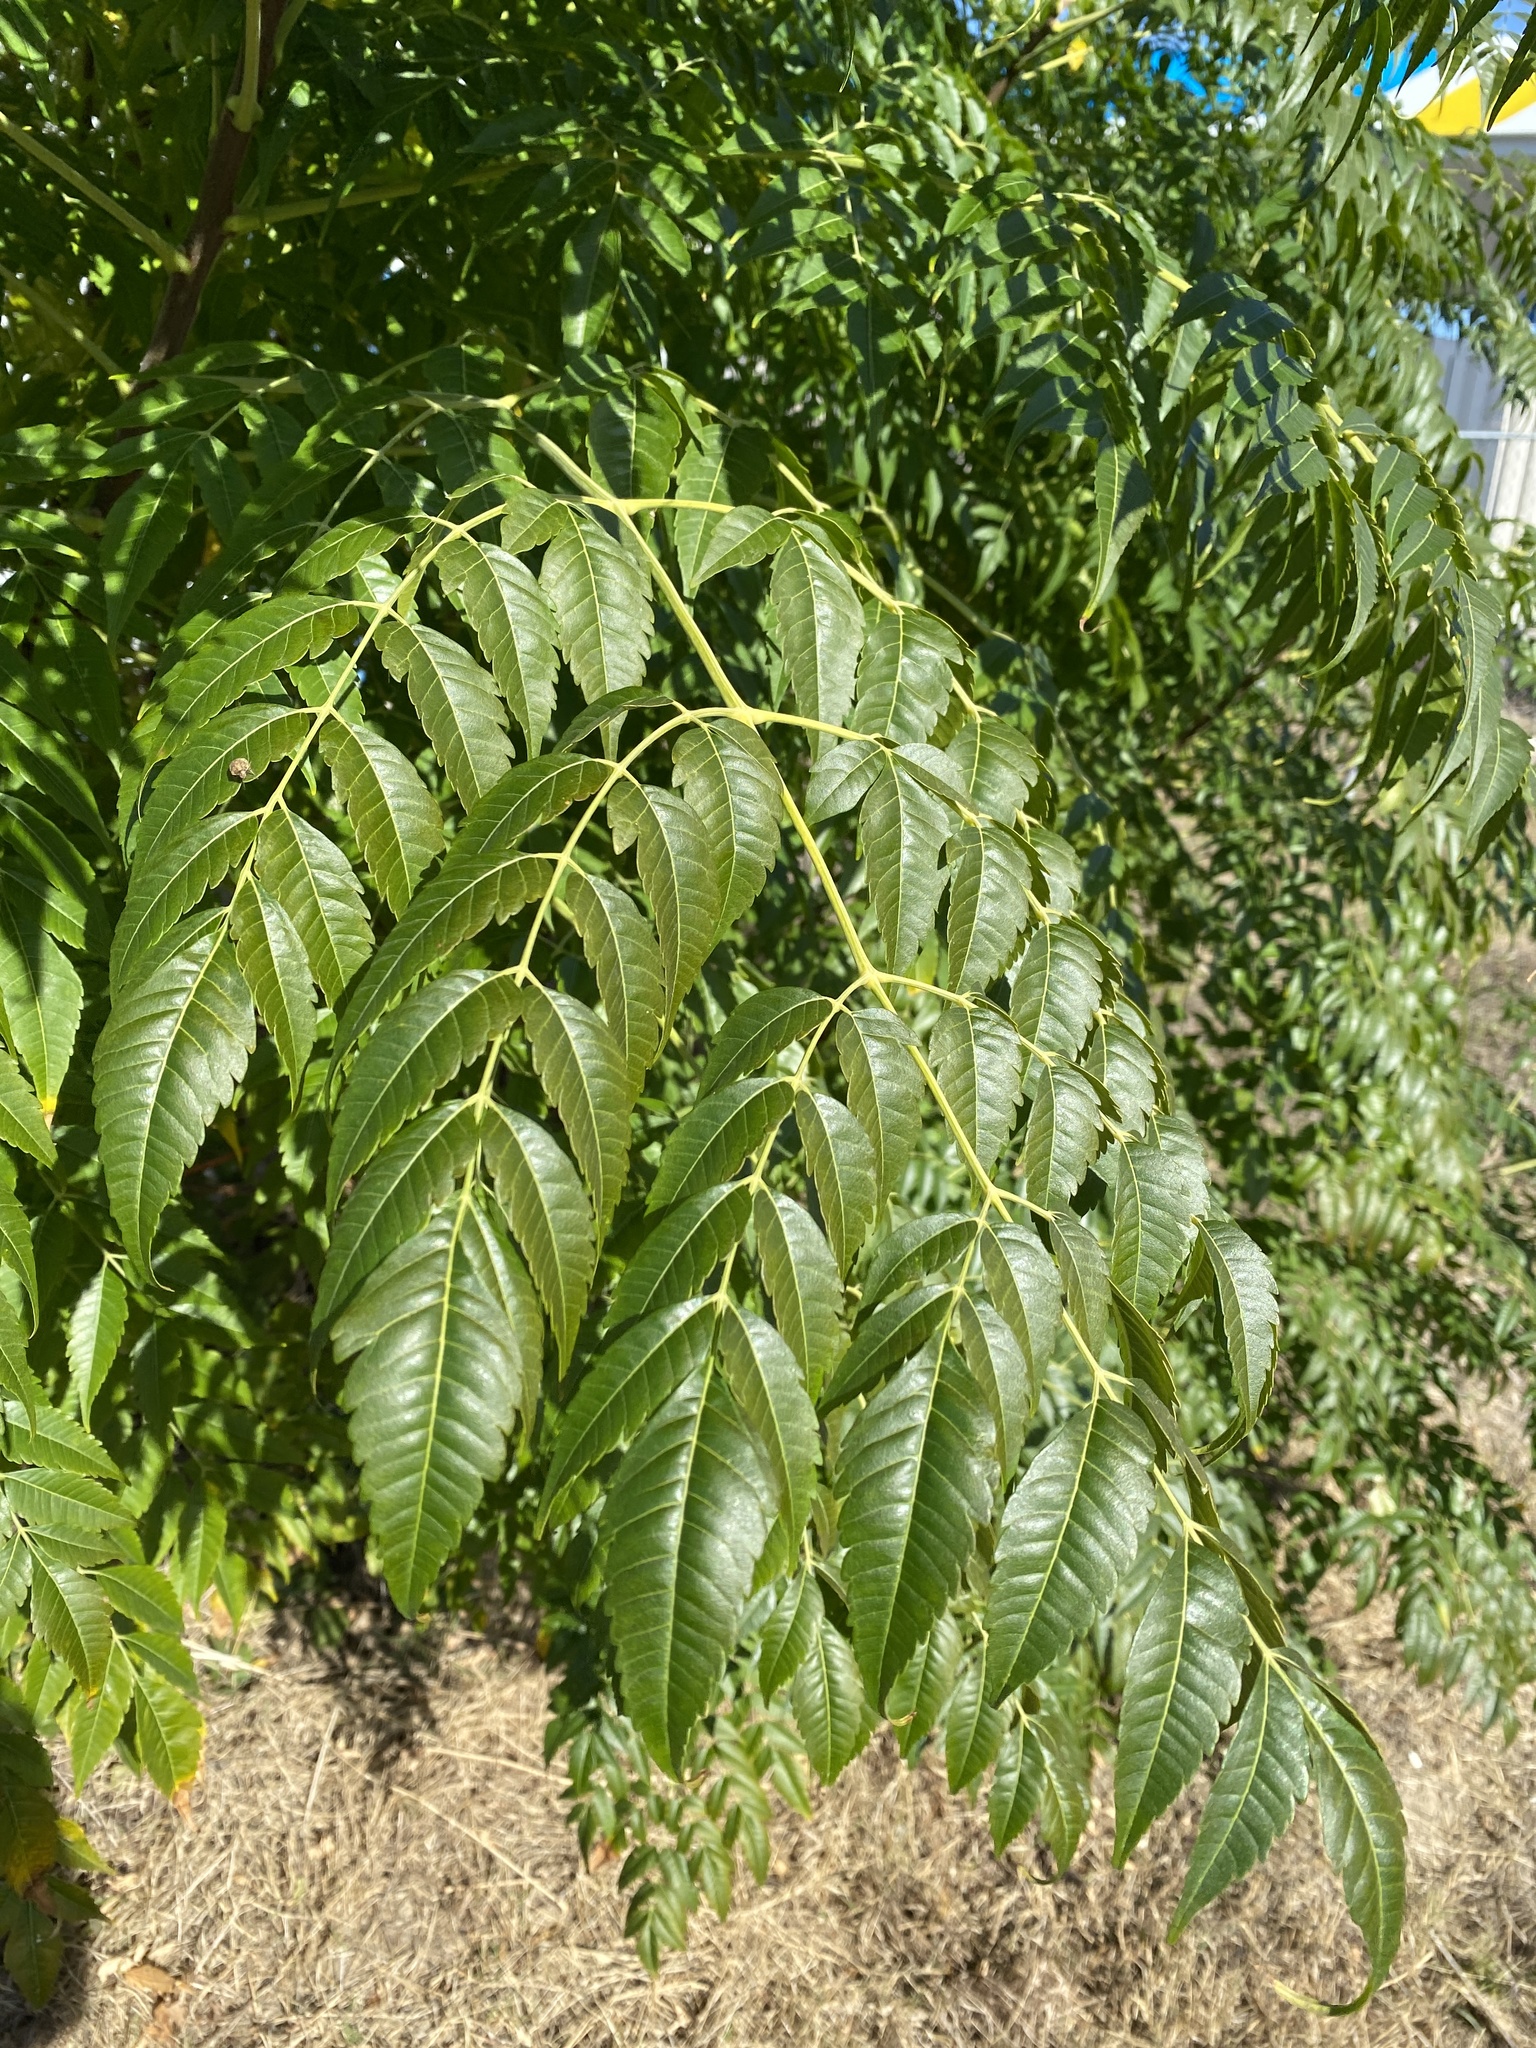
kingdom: Plantae
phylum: Tracheophyta
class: Magnoliopsida
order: Sapindales
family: Meliaceae
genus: Melia
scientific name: Melia azedarach
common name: Chinaberrytree
